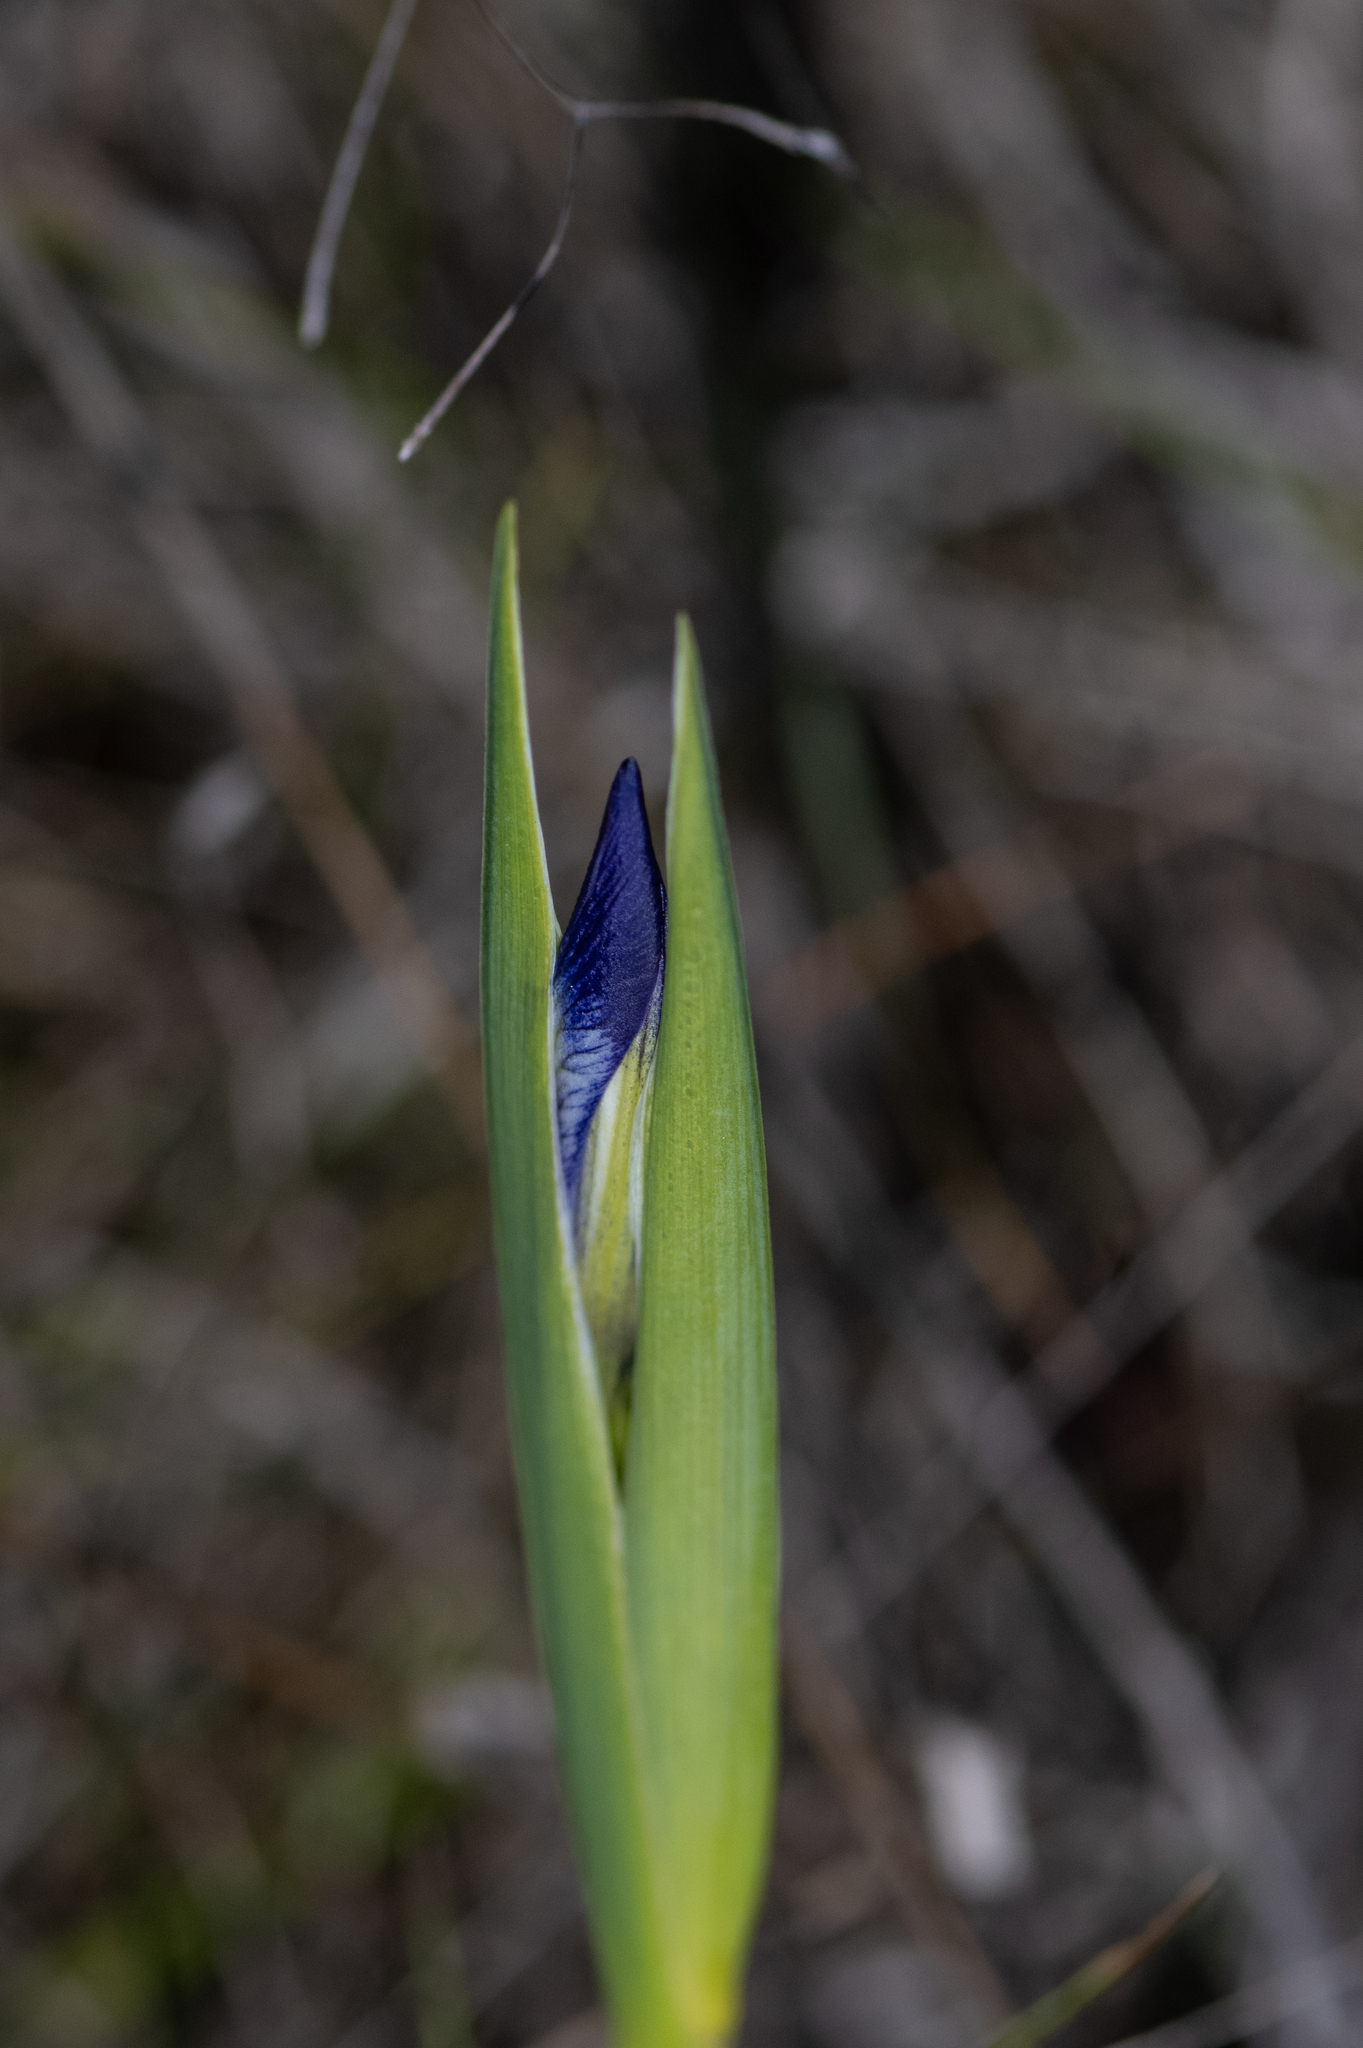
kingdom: Plantae
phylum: Tracheophyta
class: Liliopsida
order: Asparagales
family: Iridaceae
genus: Iris
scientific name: Iris douglasiana
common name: Marin iris
